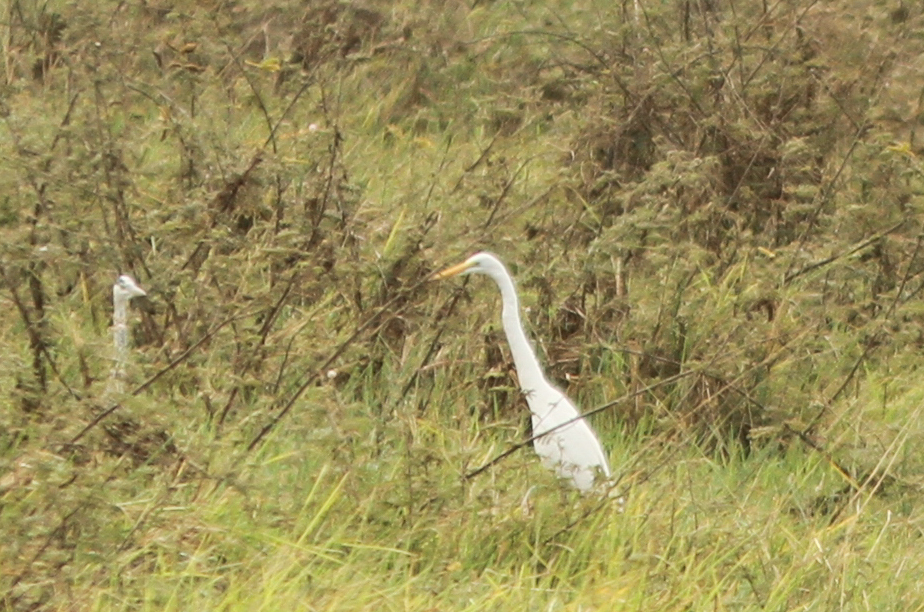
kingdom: Animalia
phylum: Chordata
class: Aves
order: Pelecaniformes
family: Ardeidae
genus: Ardea
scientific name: Ardea alba
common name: Great egret
